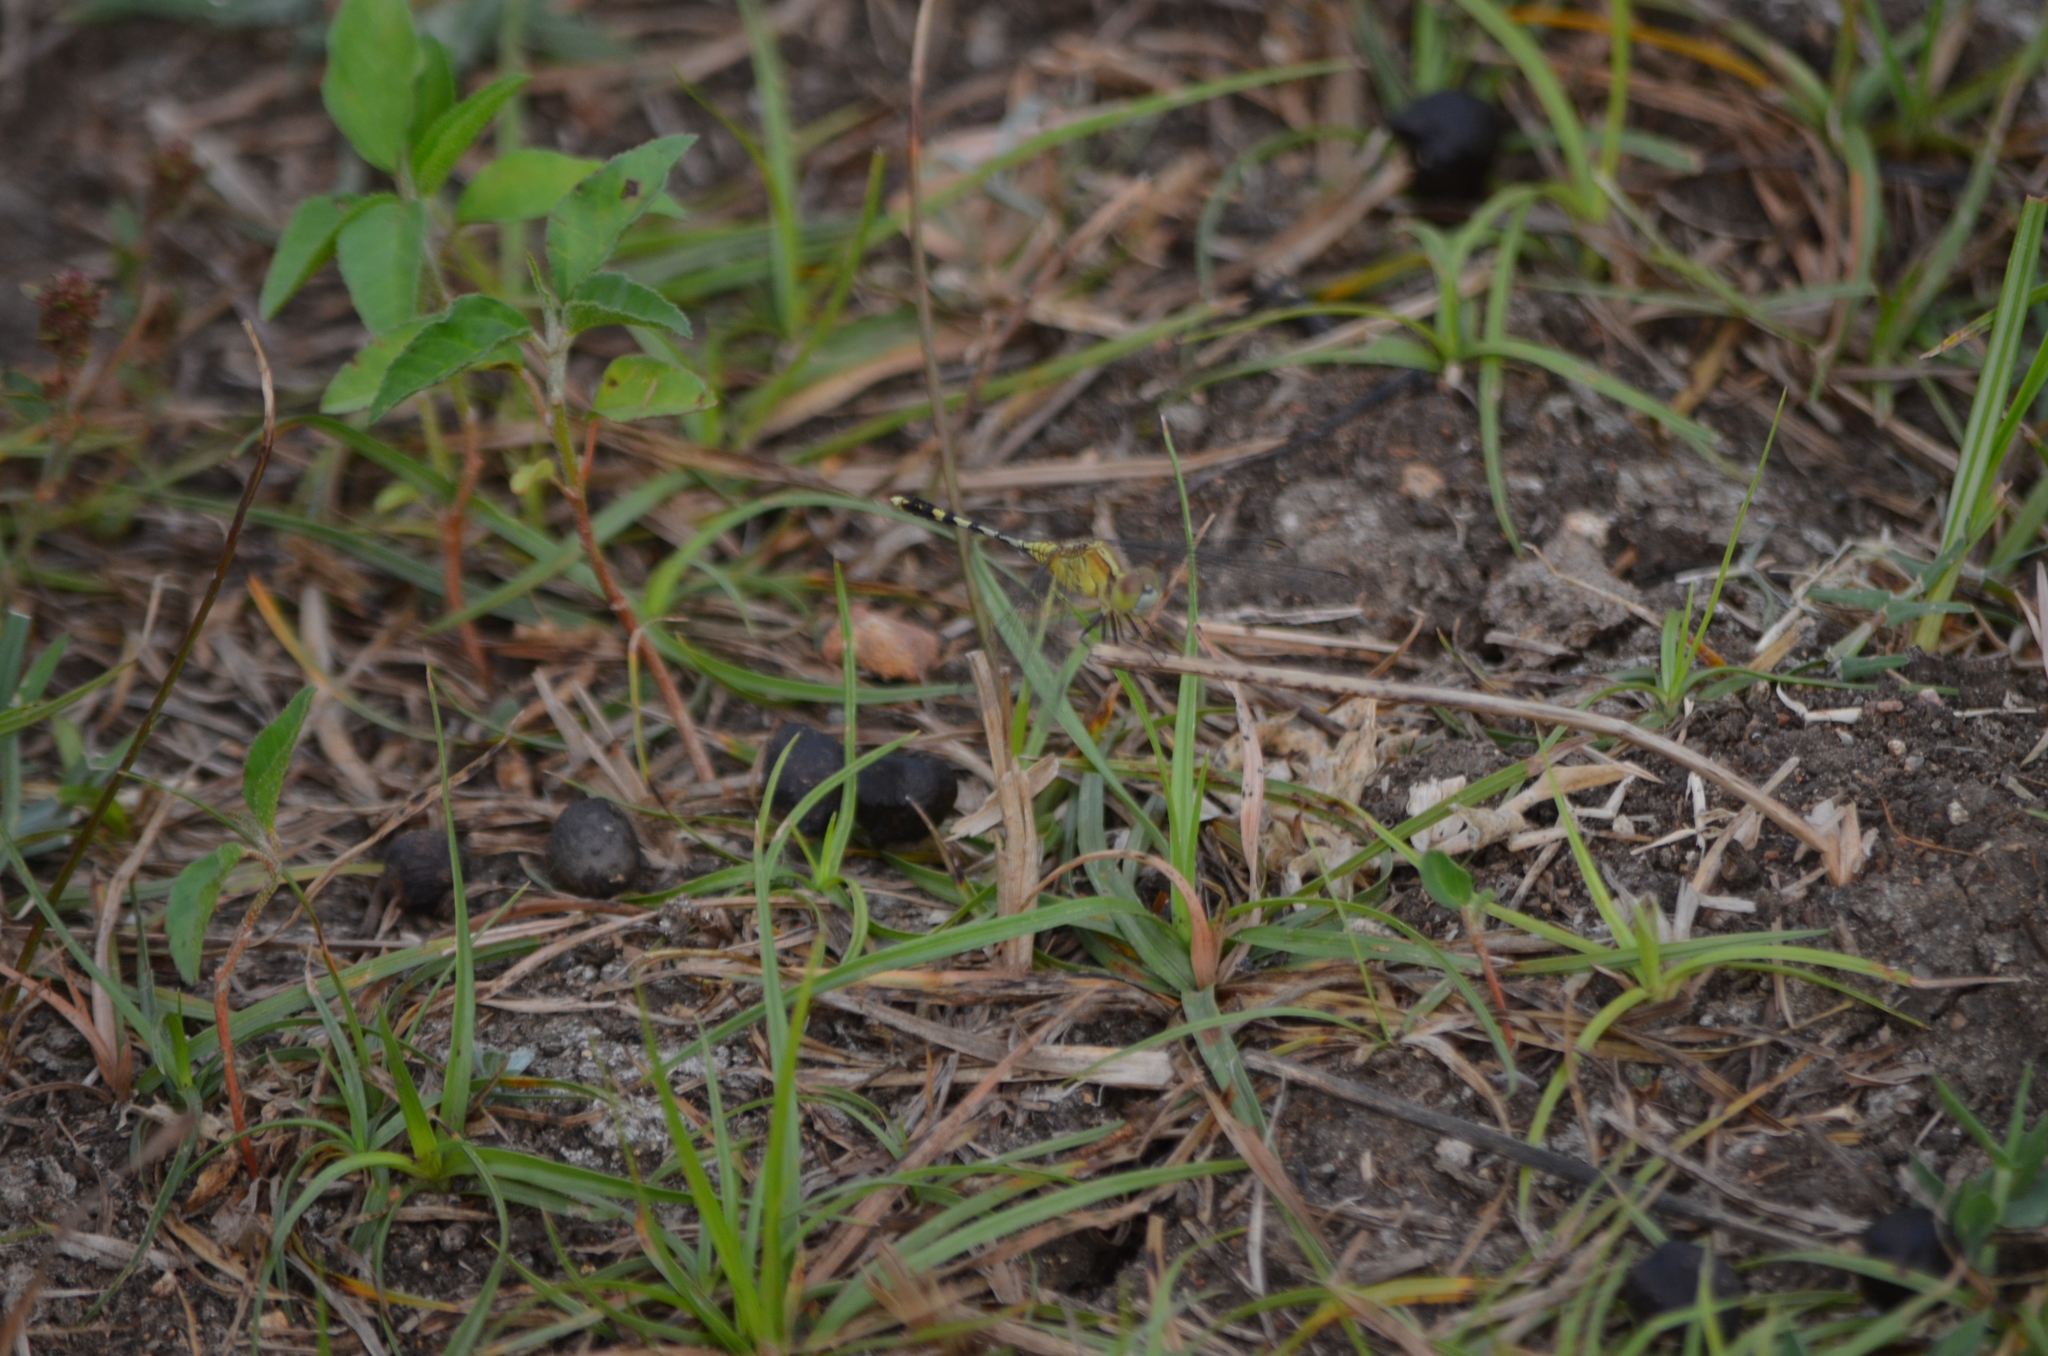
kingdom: Animalia
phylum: Arthropoda
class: Insecta
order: Odonata
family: Libellulidae
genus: Diplacodes
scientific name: Diplacodes trivialis
